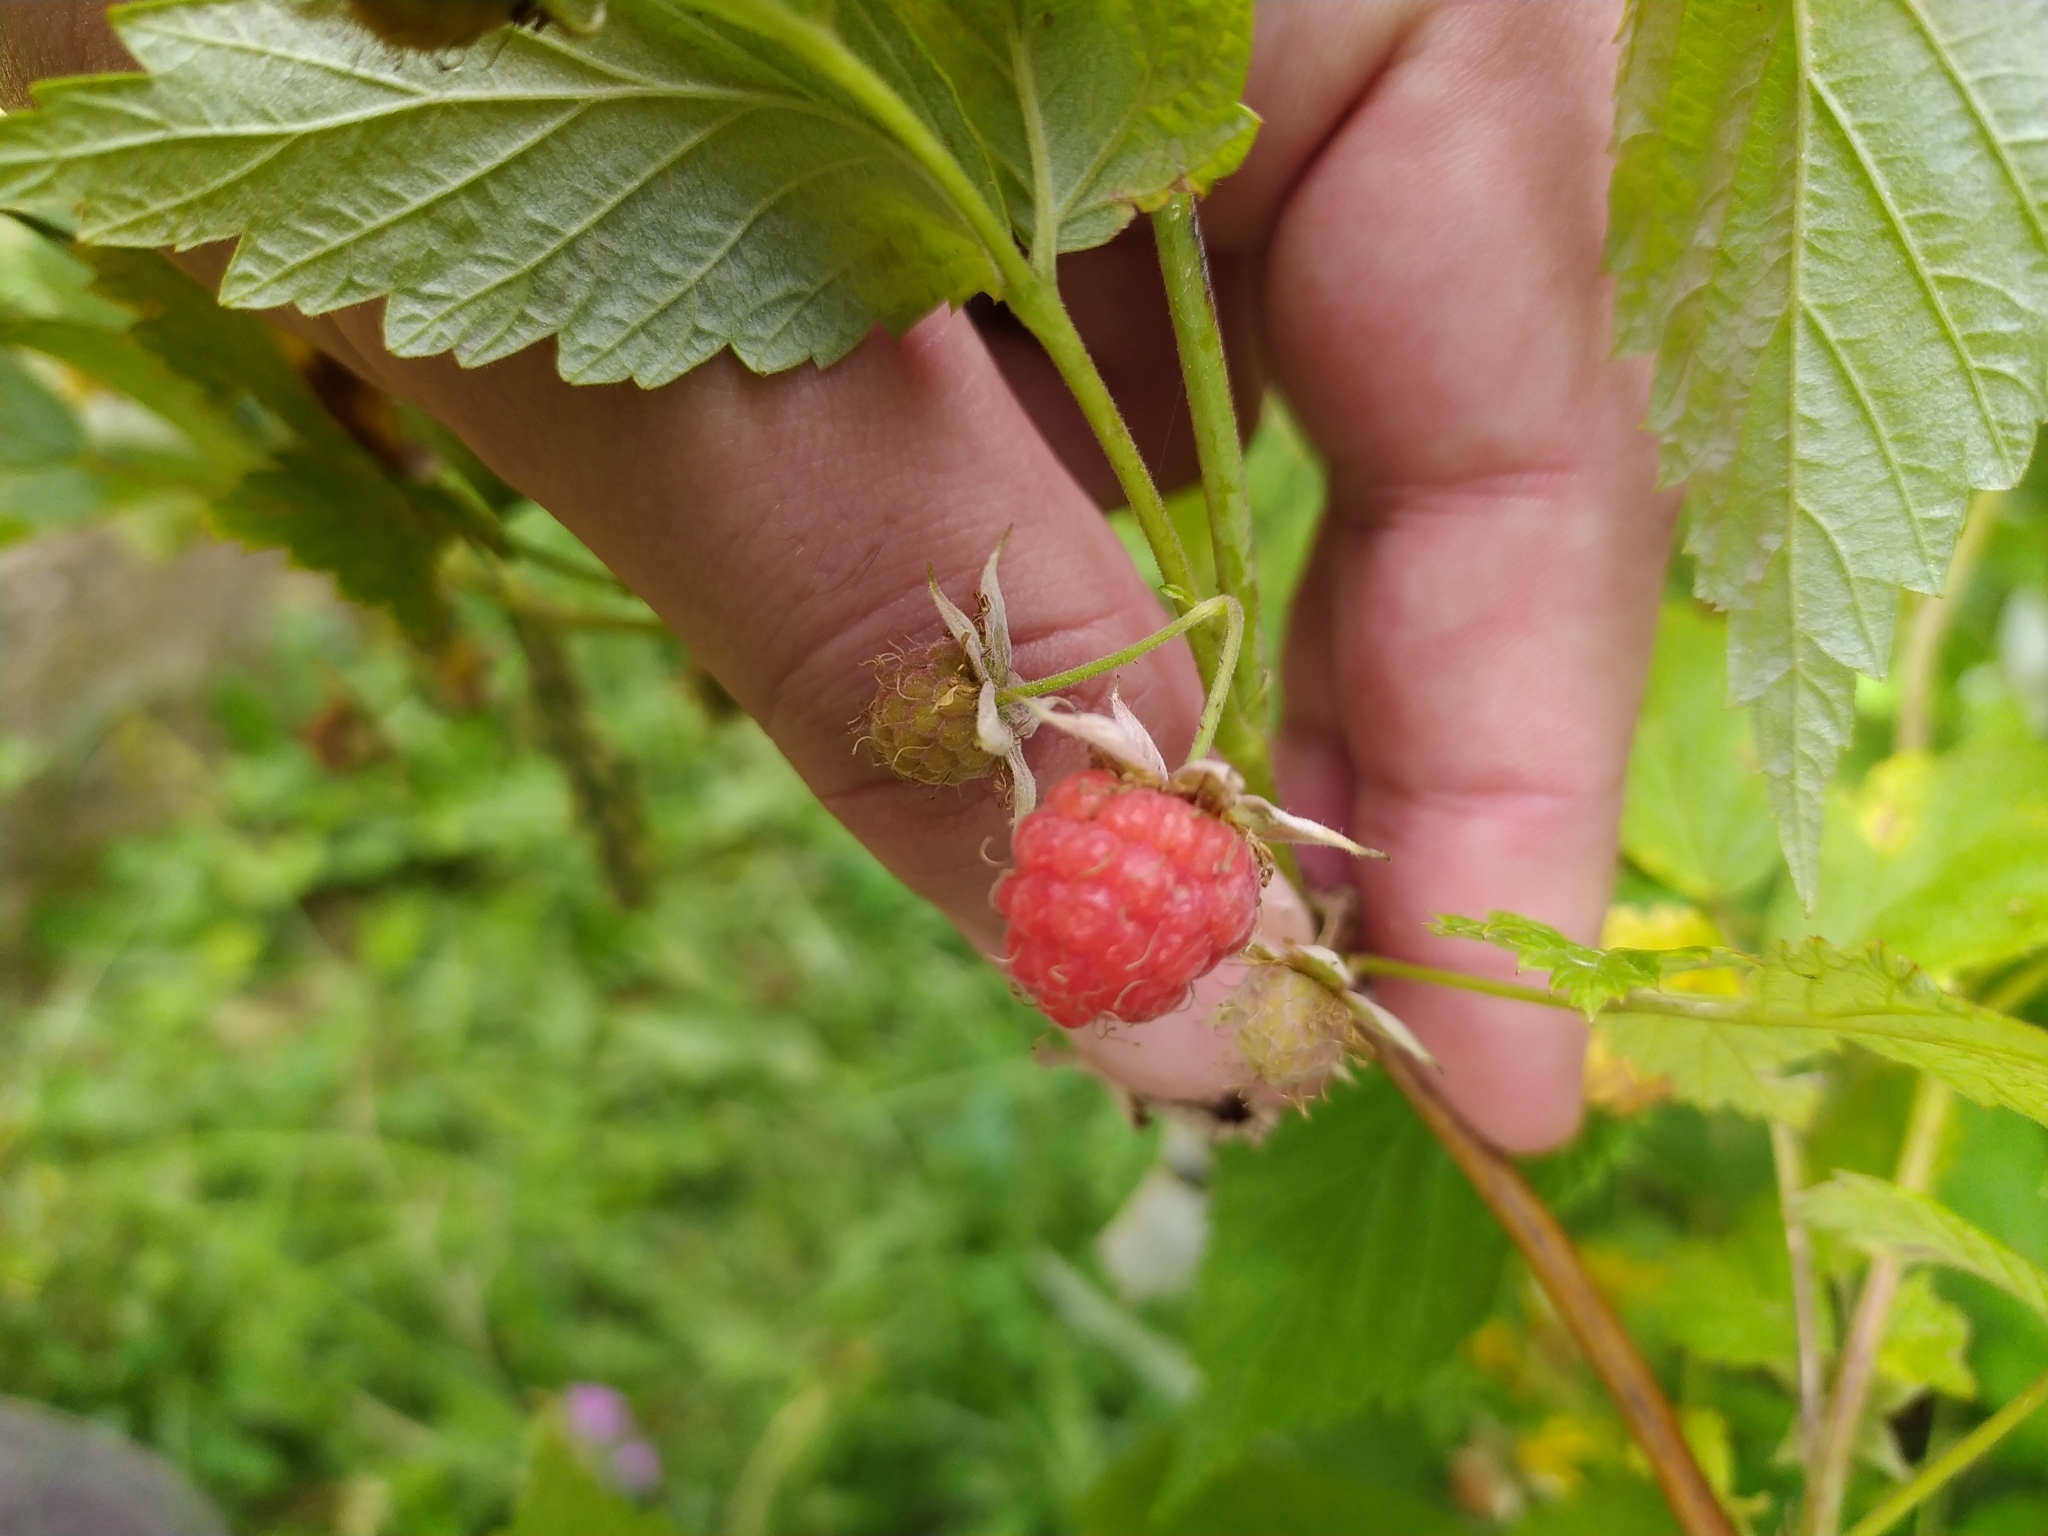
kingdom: Plantae
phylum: Tracheophyta
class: Magnoliopsida
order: Rosales
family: Rosaceae
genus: Rubus
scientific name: Rubus idaeus
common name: Raspberry
